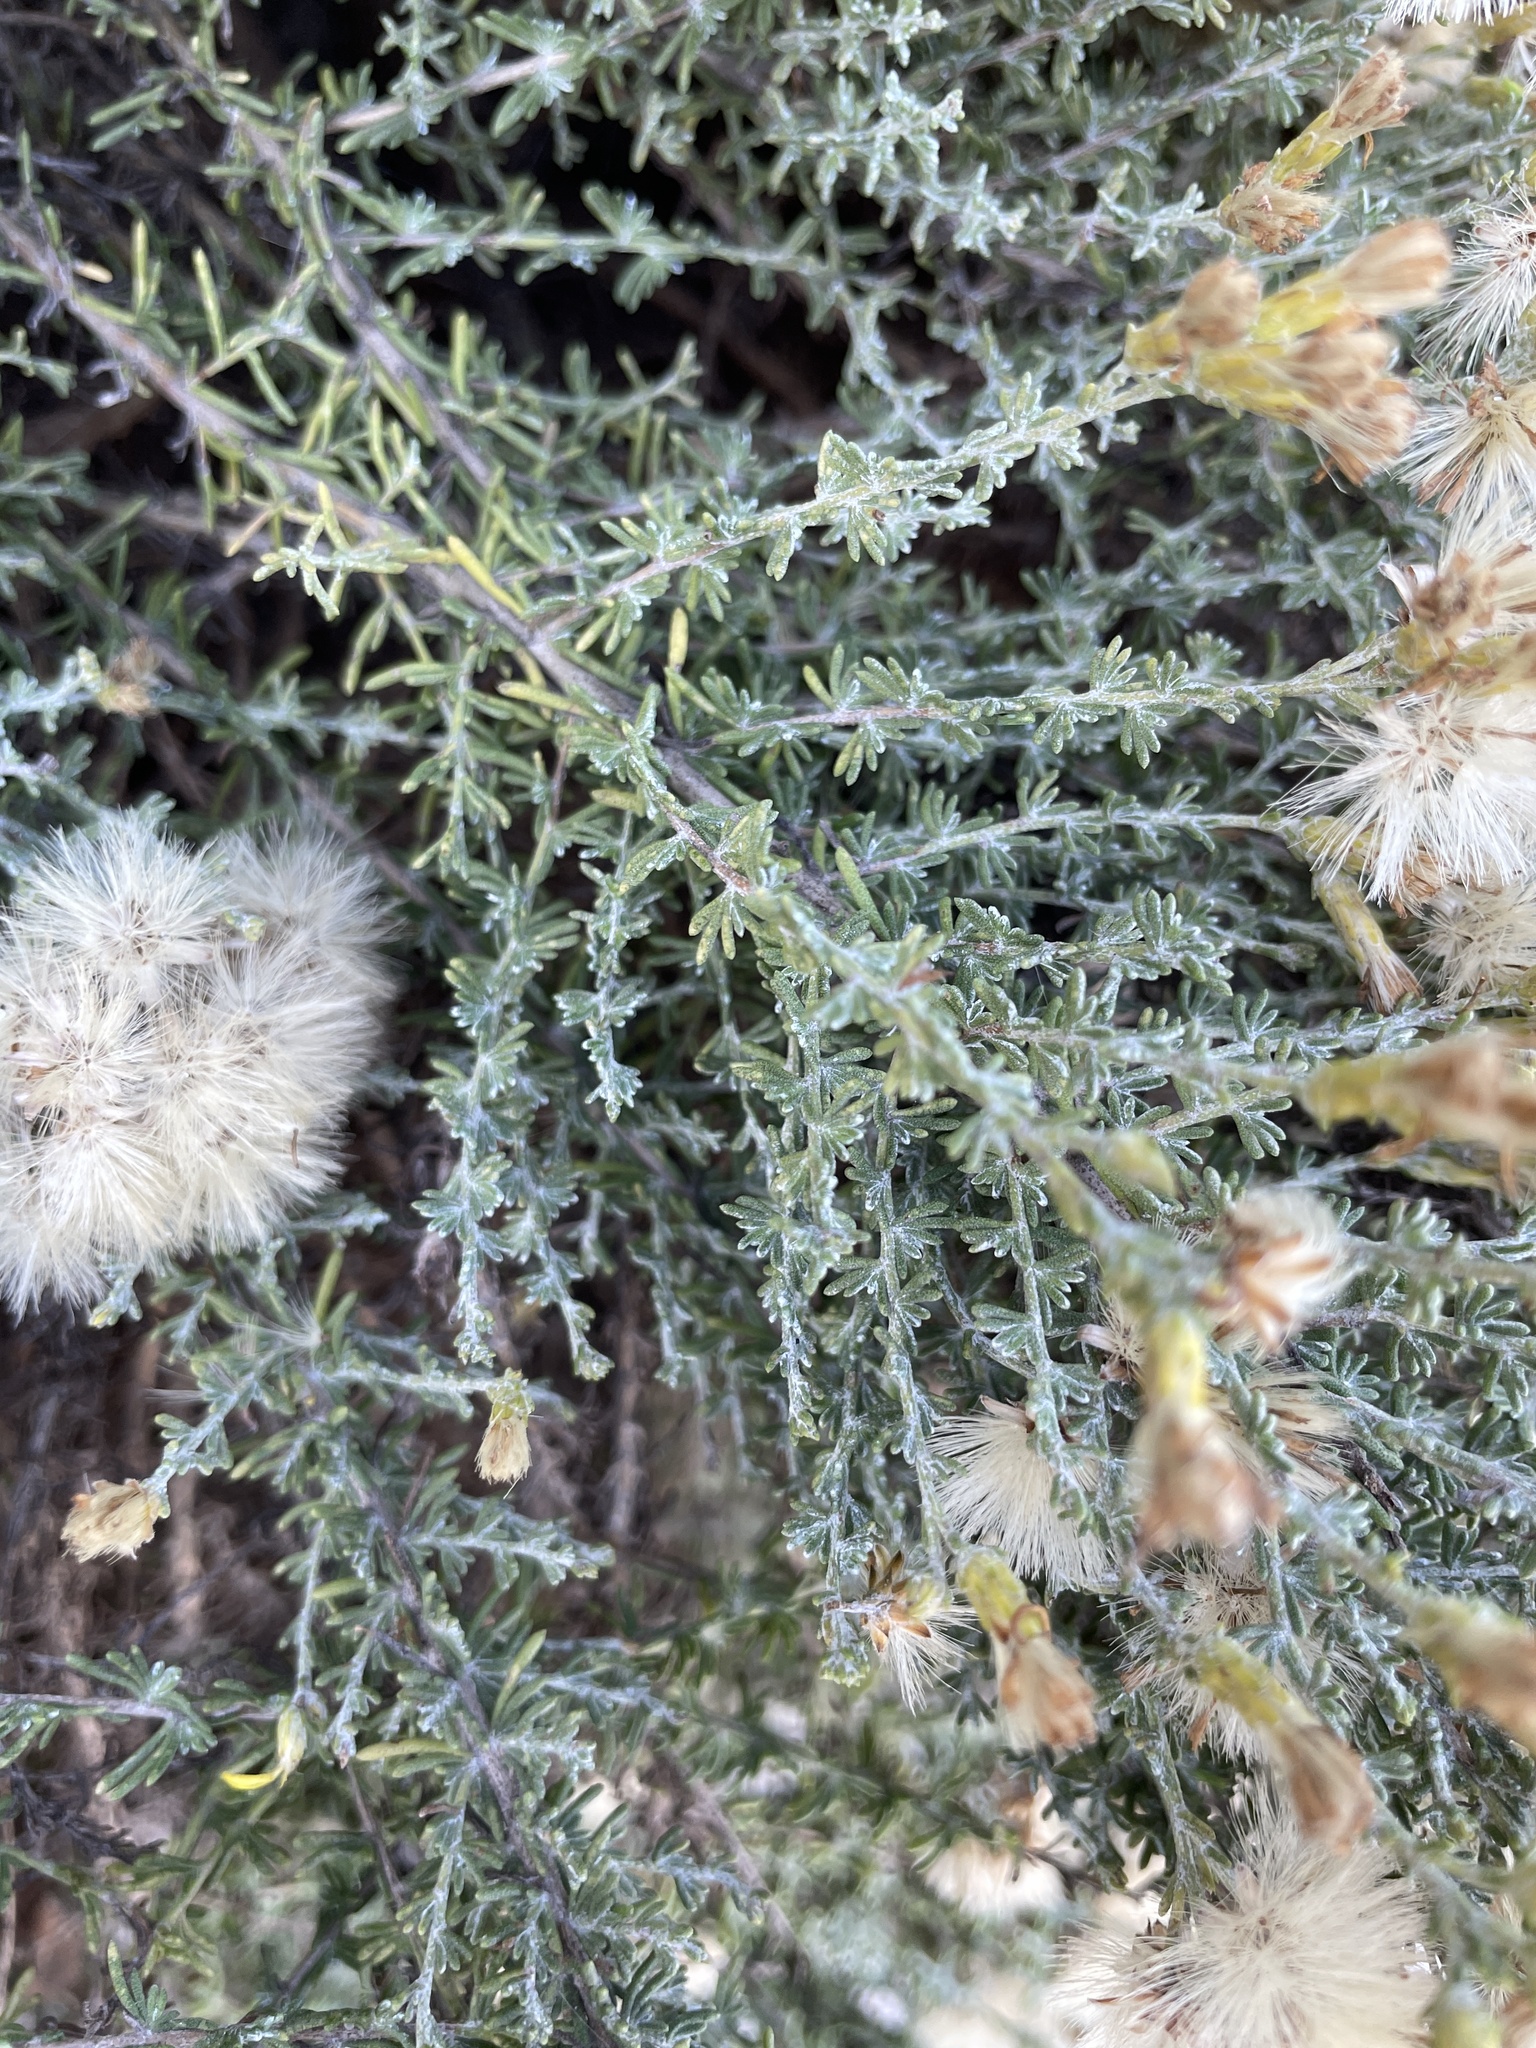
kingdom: Plantae
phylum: Tracheophyta
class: Magnoliopsida
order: Asterales
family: Asteraceae
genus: Ericameria
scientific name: Ericameria ericoides
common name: California goldenbush
